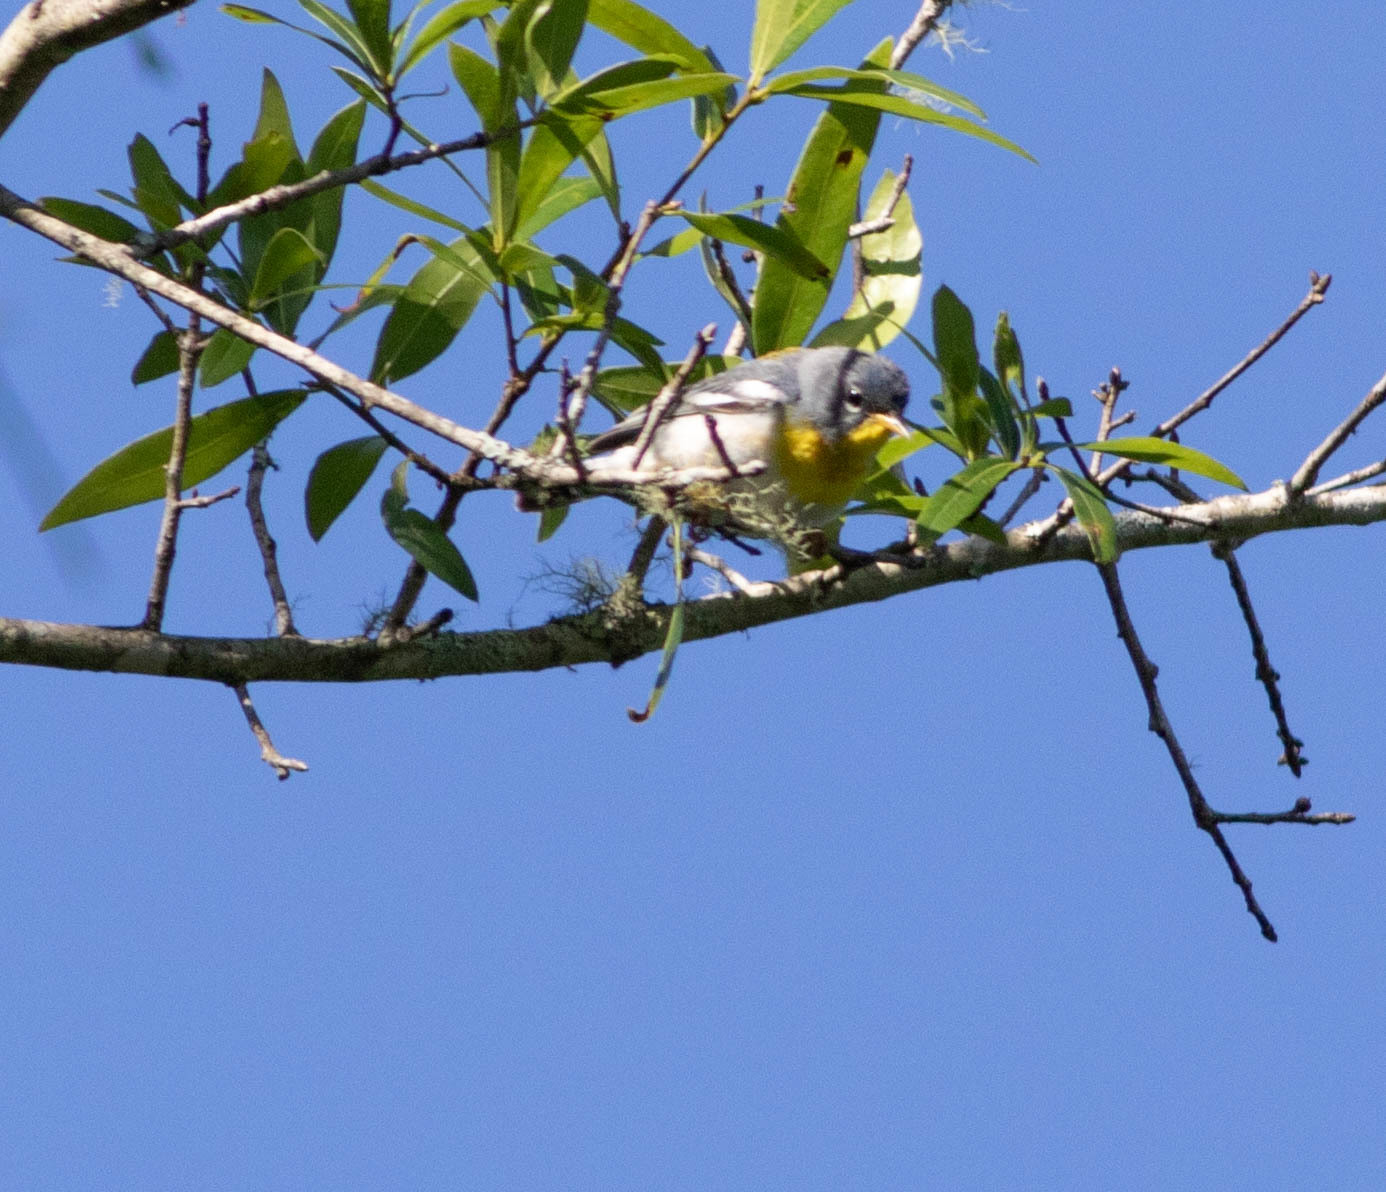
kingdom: Animalia
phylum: Chordata
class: Aves
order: Passeriformes
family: Parulidae
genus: Setophaga
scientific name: Setophaga americana
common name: Northern parula
